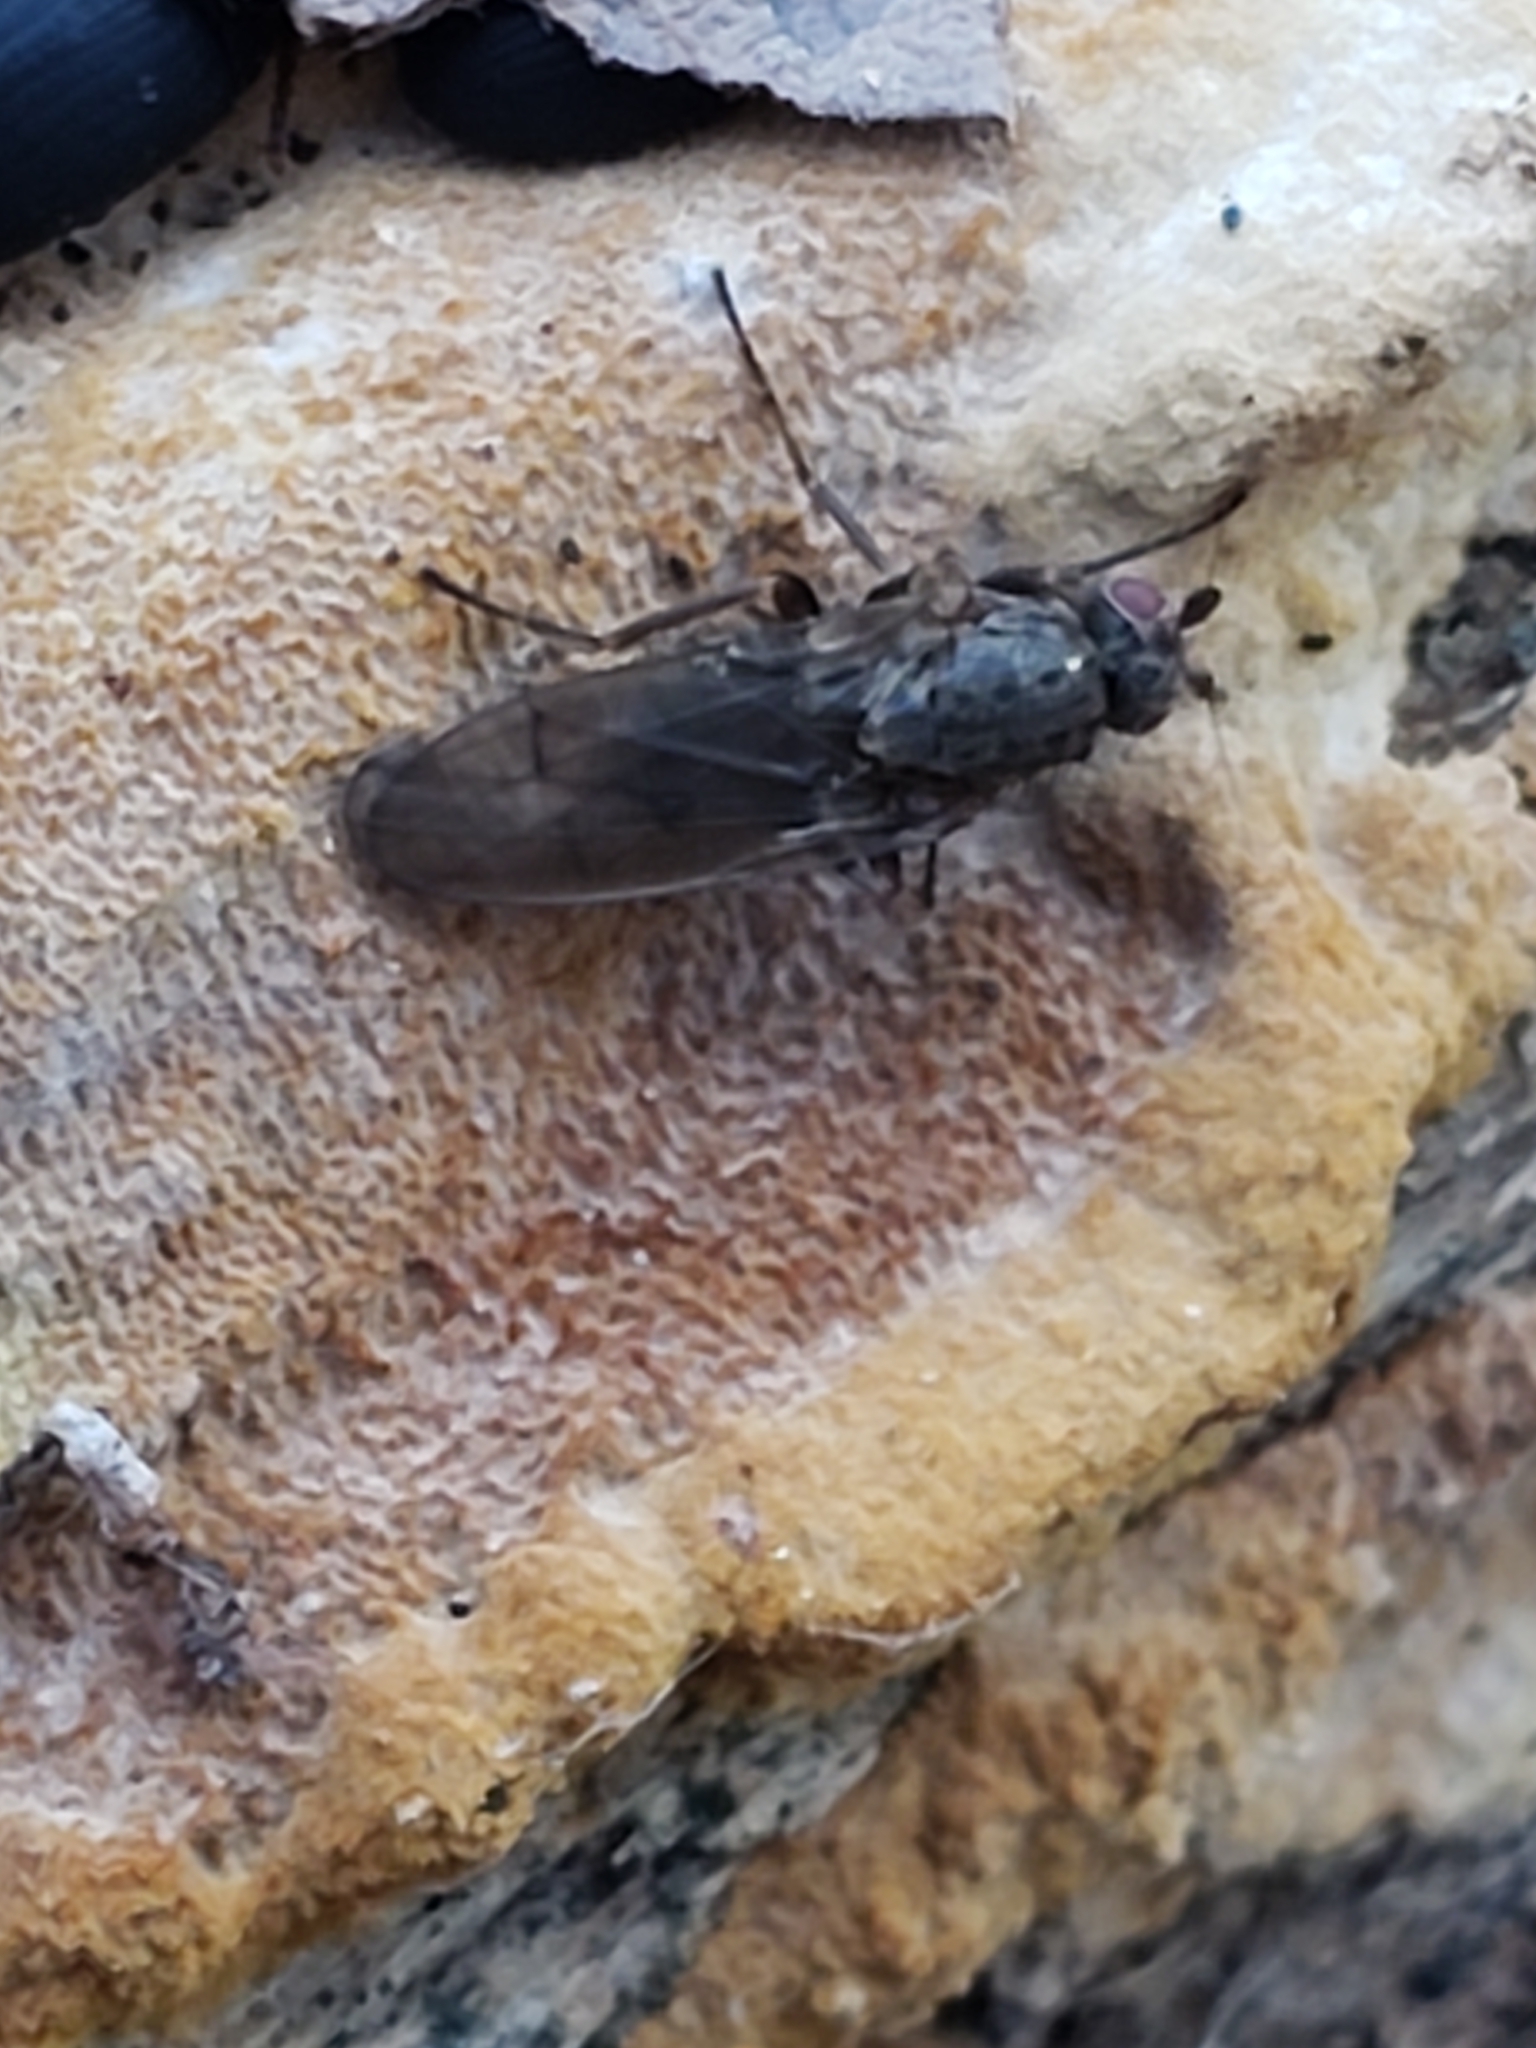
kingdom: Animalia
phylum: Arthropoda
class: Insecta
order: Diptera
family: Heleomyzidae
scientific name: Heleomyzidae
